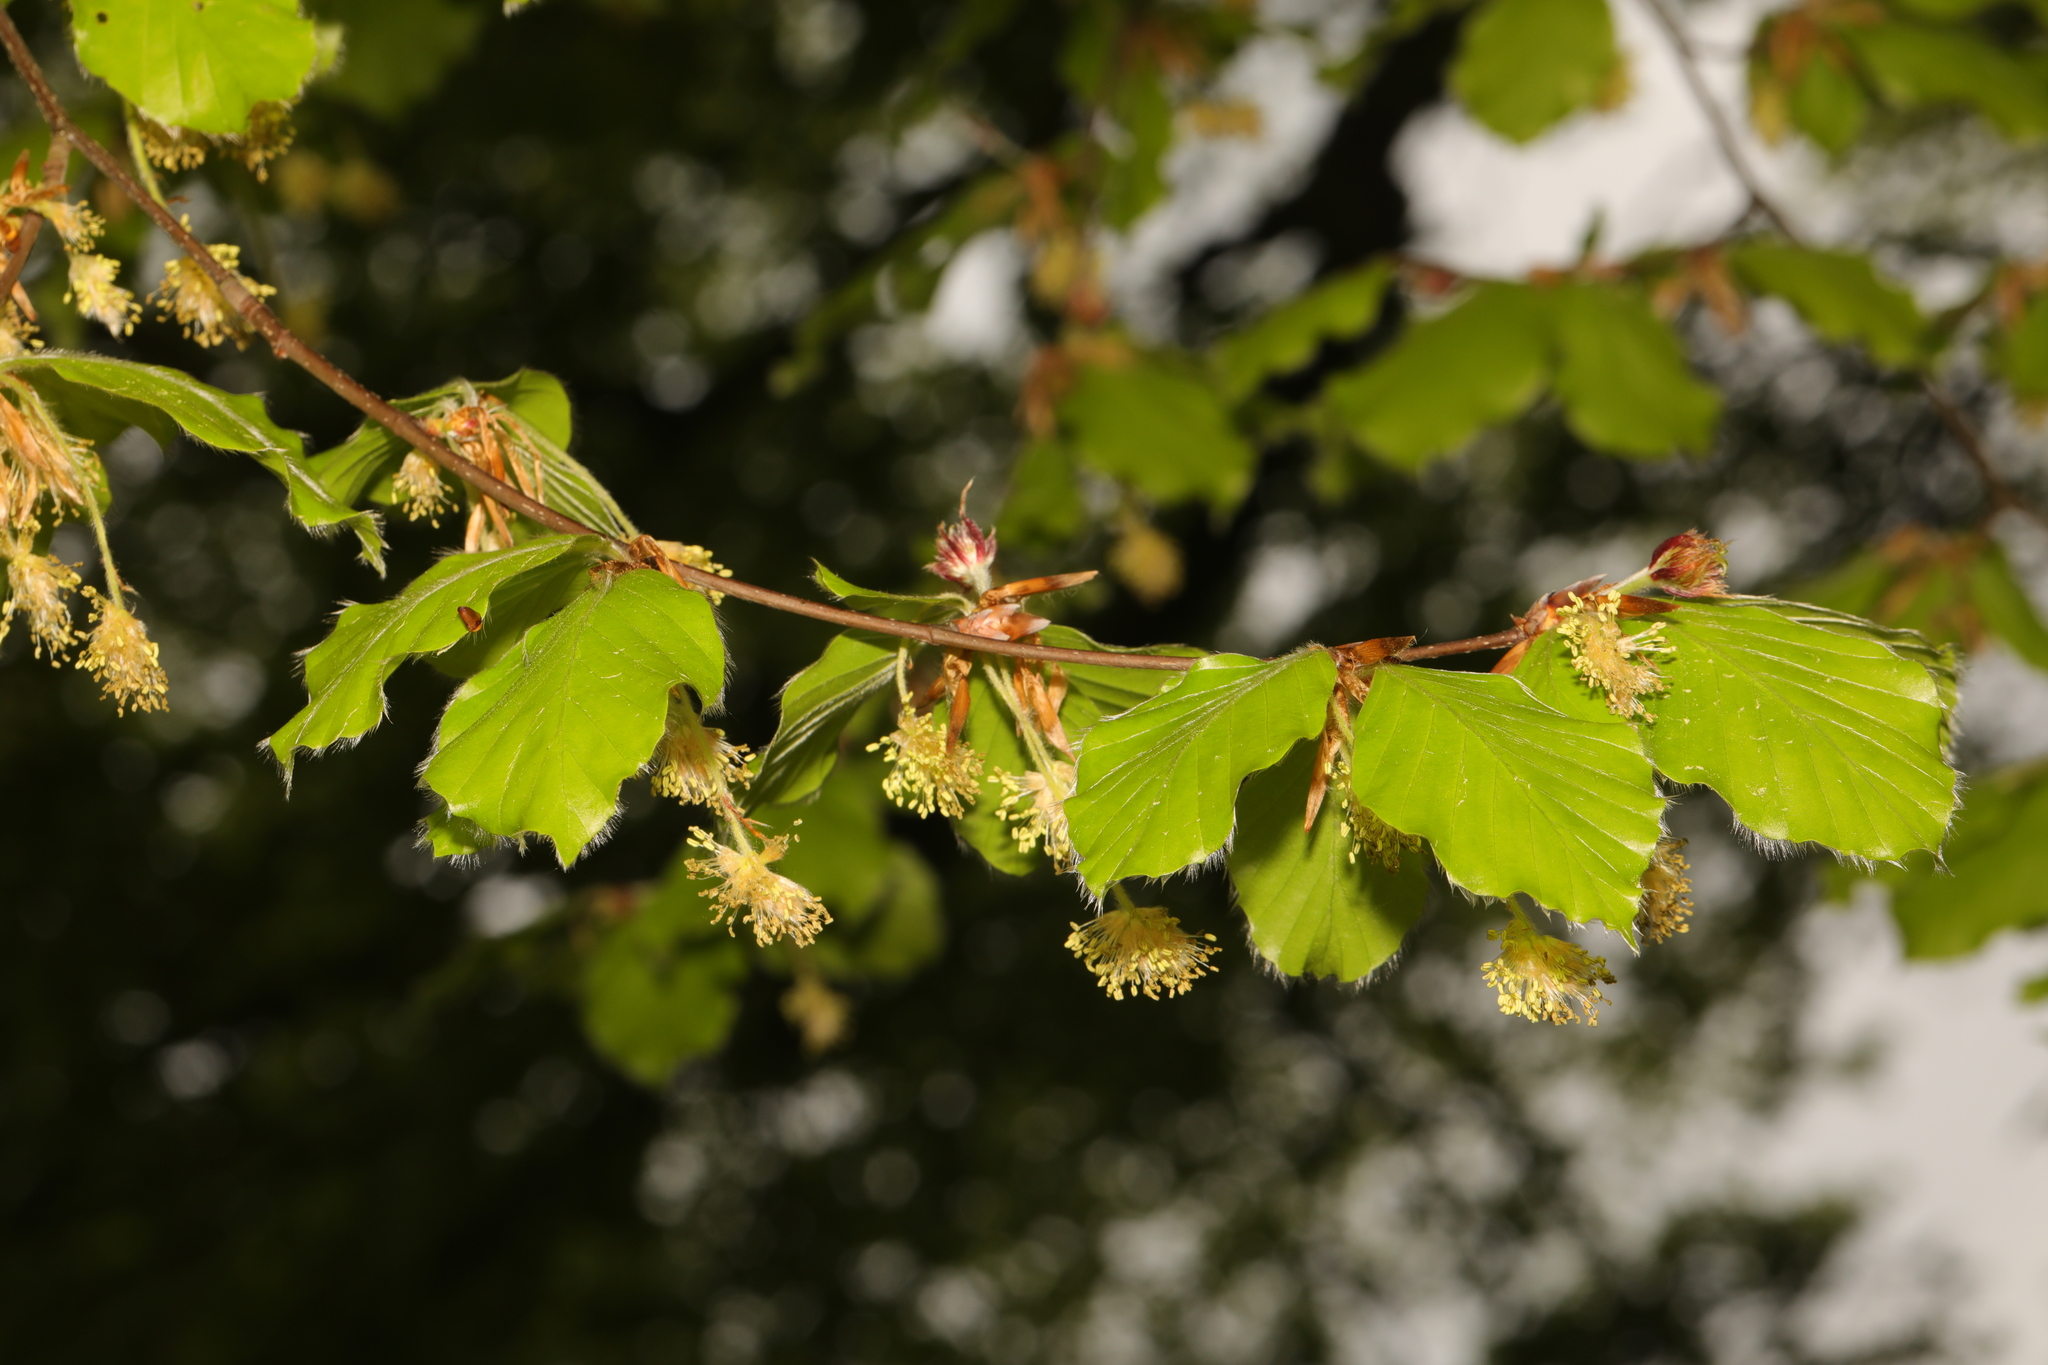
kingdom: Plantae
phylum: Tracheophyta
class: Magnoliopsida
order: Fagales
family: Fagaceae
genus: Fagus
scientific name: Fagus sylvatica
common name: Beech
